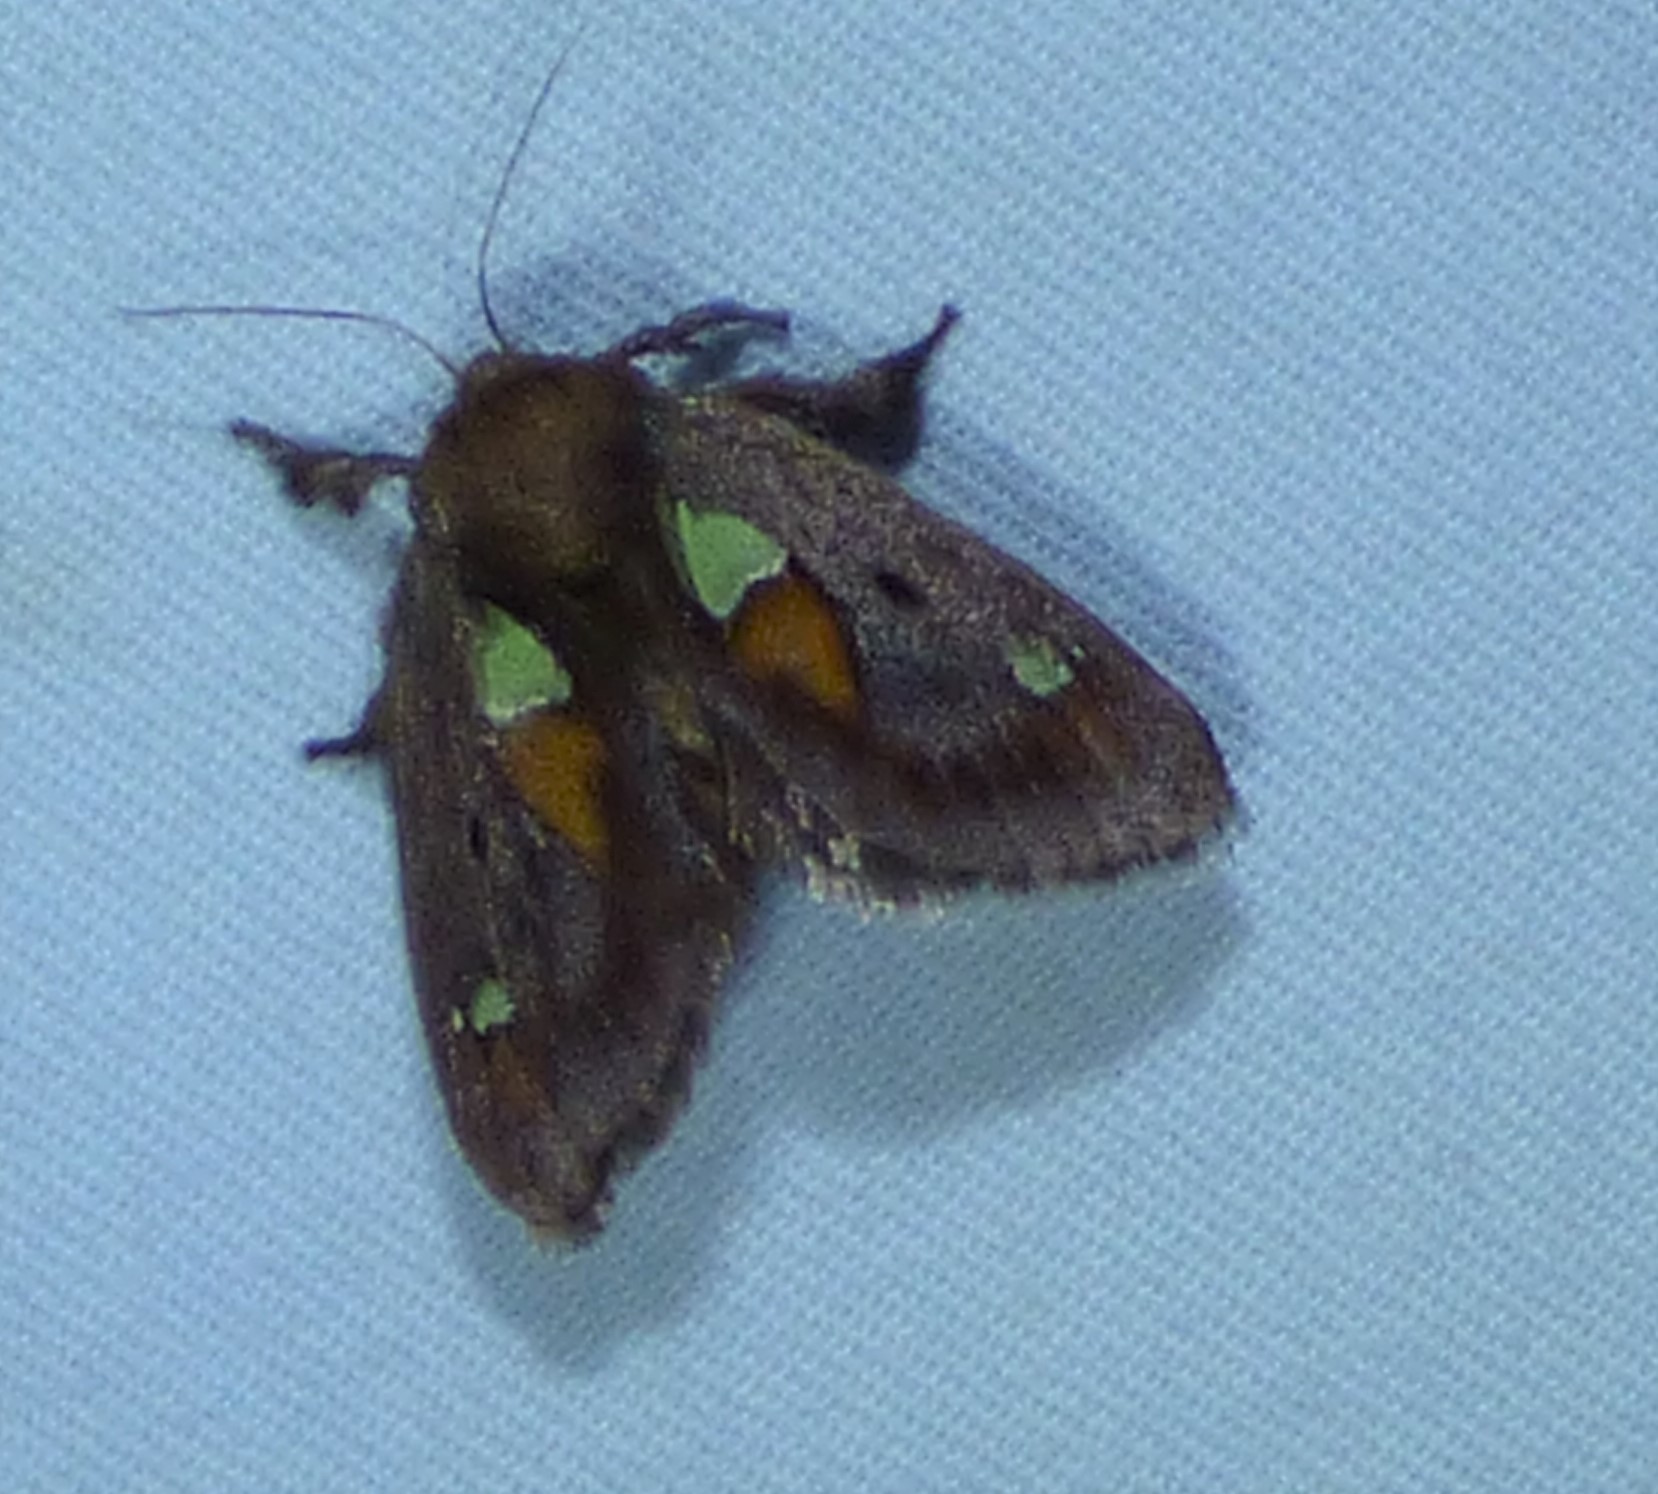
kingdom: Animalia
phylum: Arthropoda
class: Insecta
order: Lepidoptera
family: Limacodidae
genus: Euclea
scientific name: Euclea delphinii
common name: Spiny oak-slug moth
